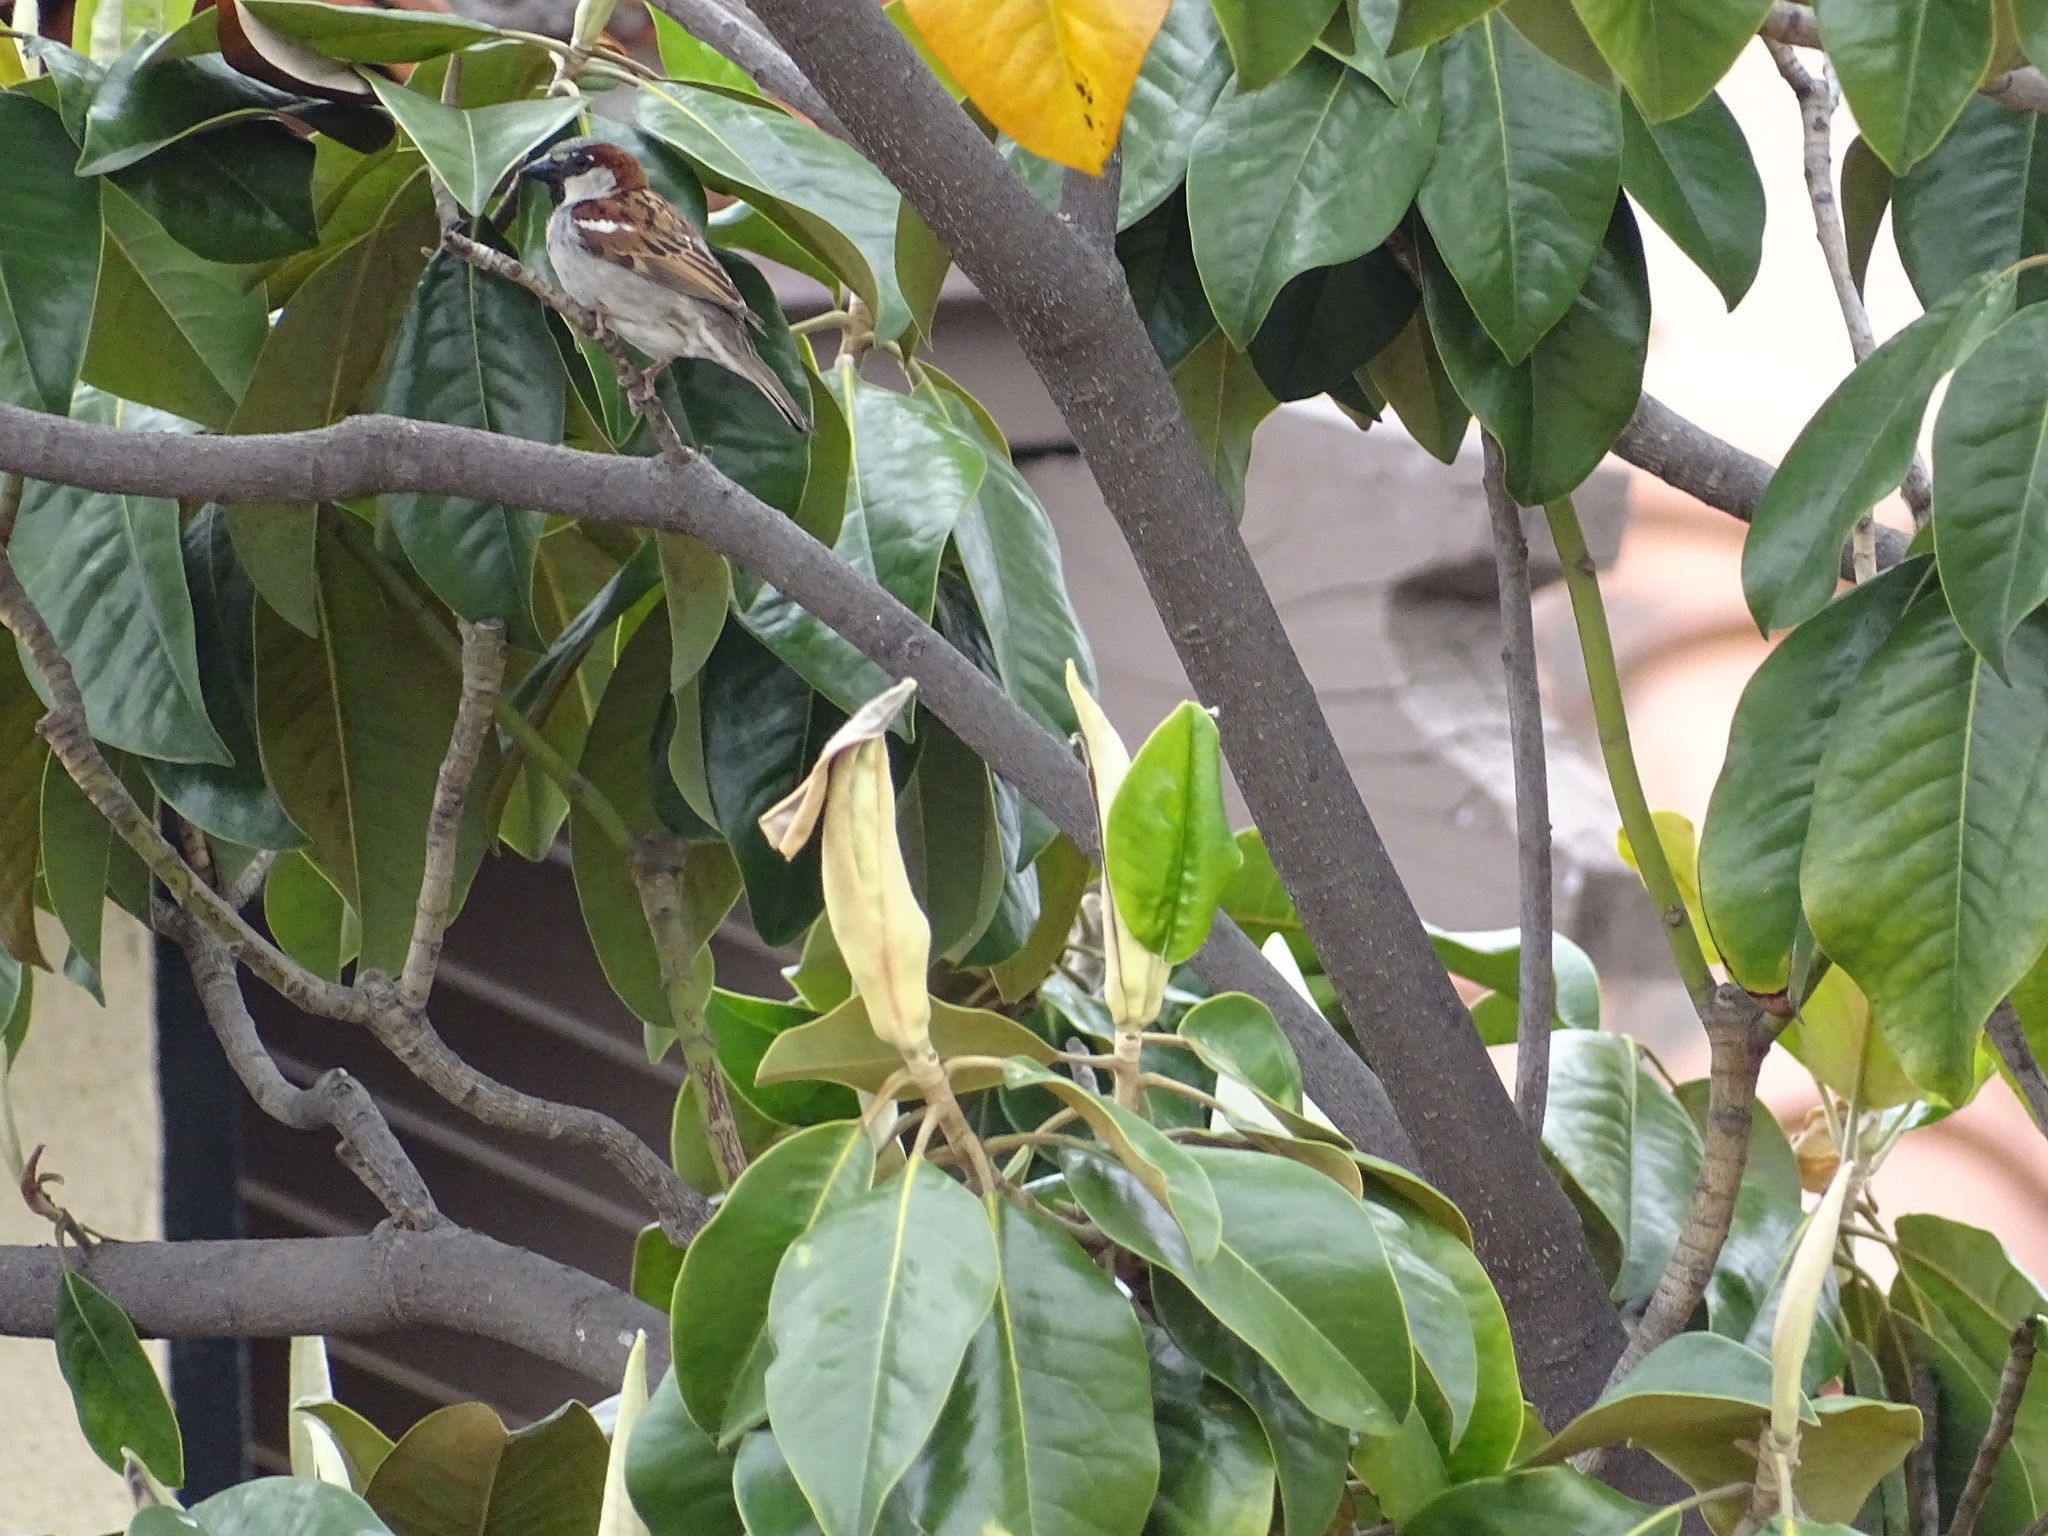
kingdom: Animalia
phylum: Chordata
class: Aves
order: Passeriformes
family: Passeridae
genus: Passer
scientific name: Passer domesticus
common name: House sparrow
